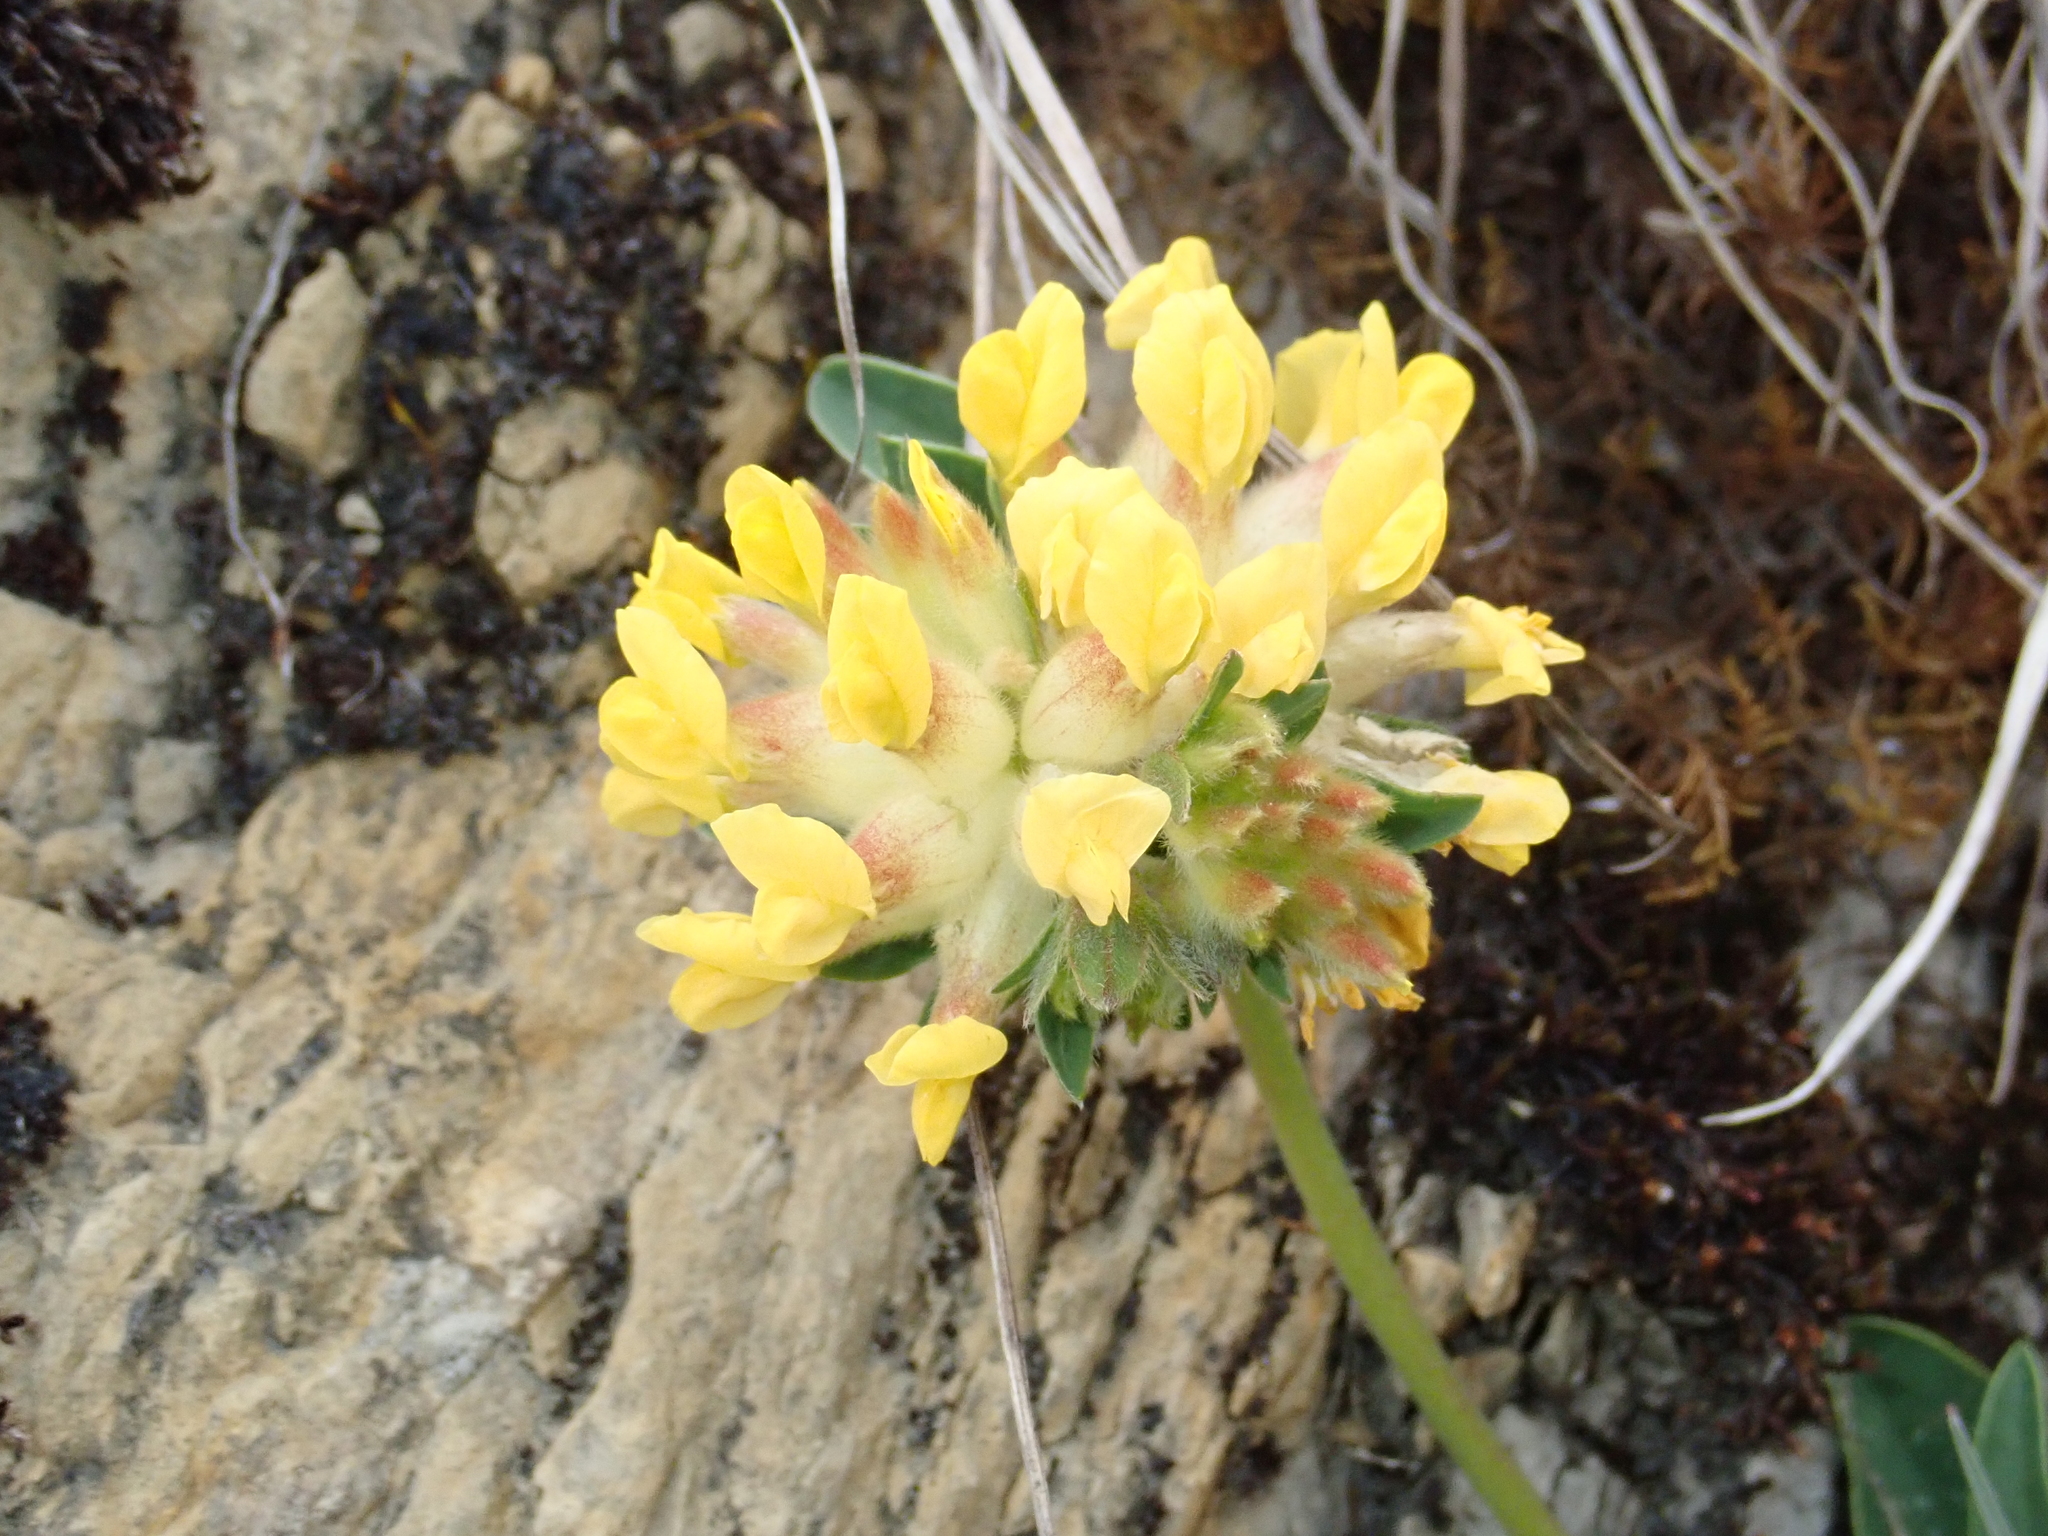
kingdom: Plantae
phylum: Tracheophyta
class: Magnoliopsida
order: Fabales
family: Fabaceae
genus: Anthyllis
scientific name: Anthyllis vulneraria
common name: Kidney vetch
